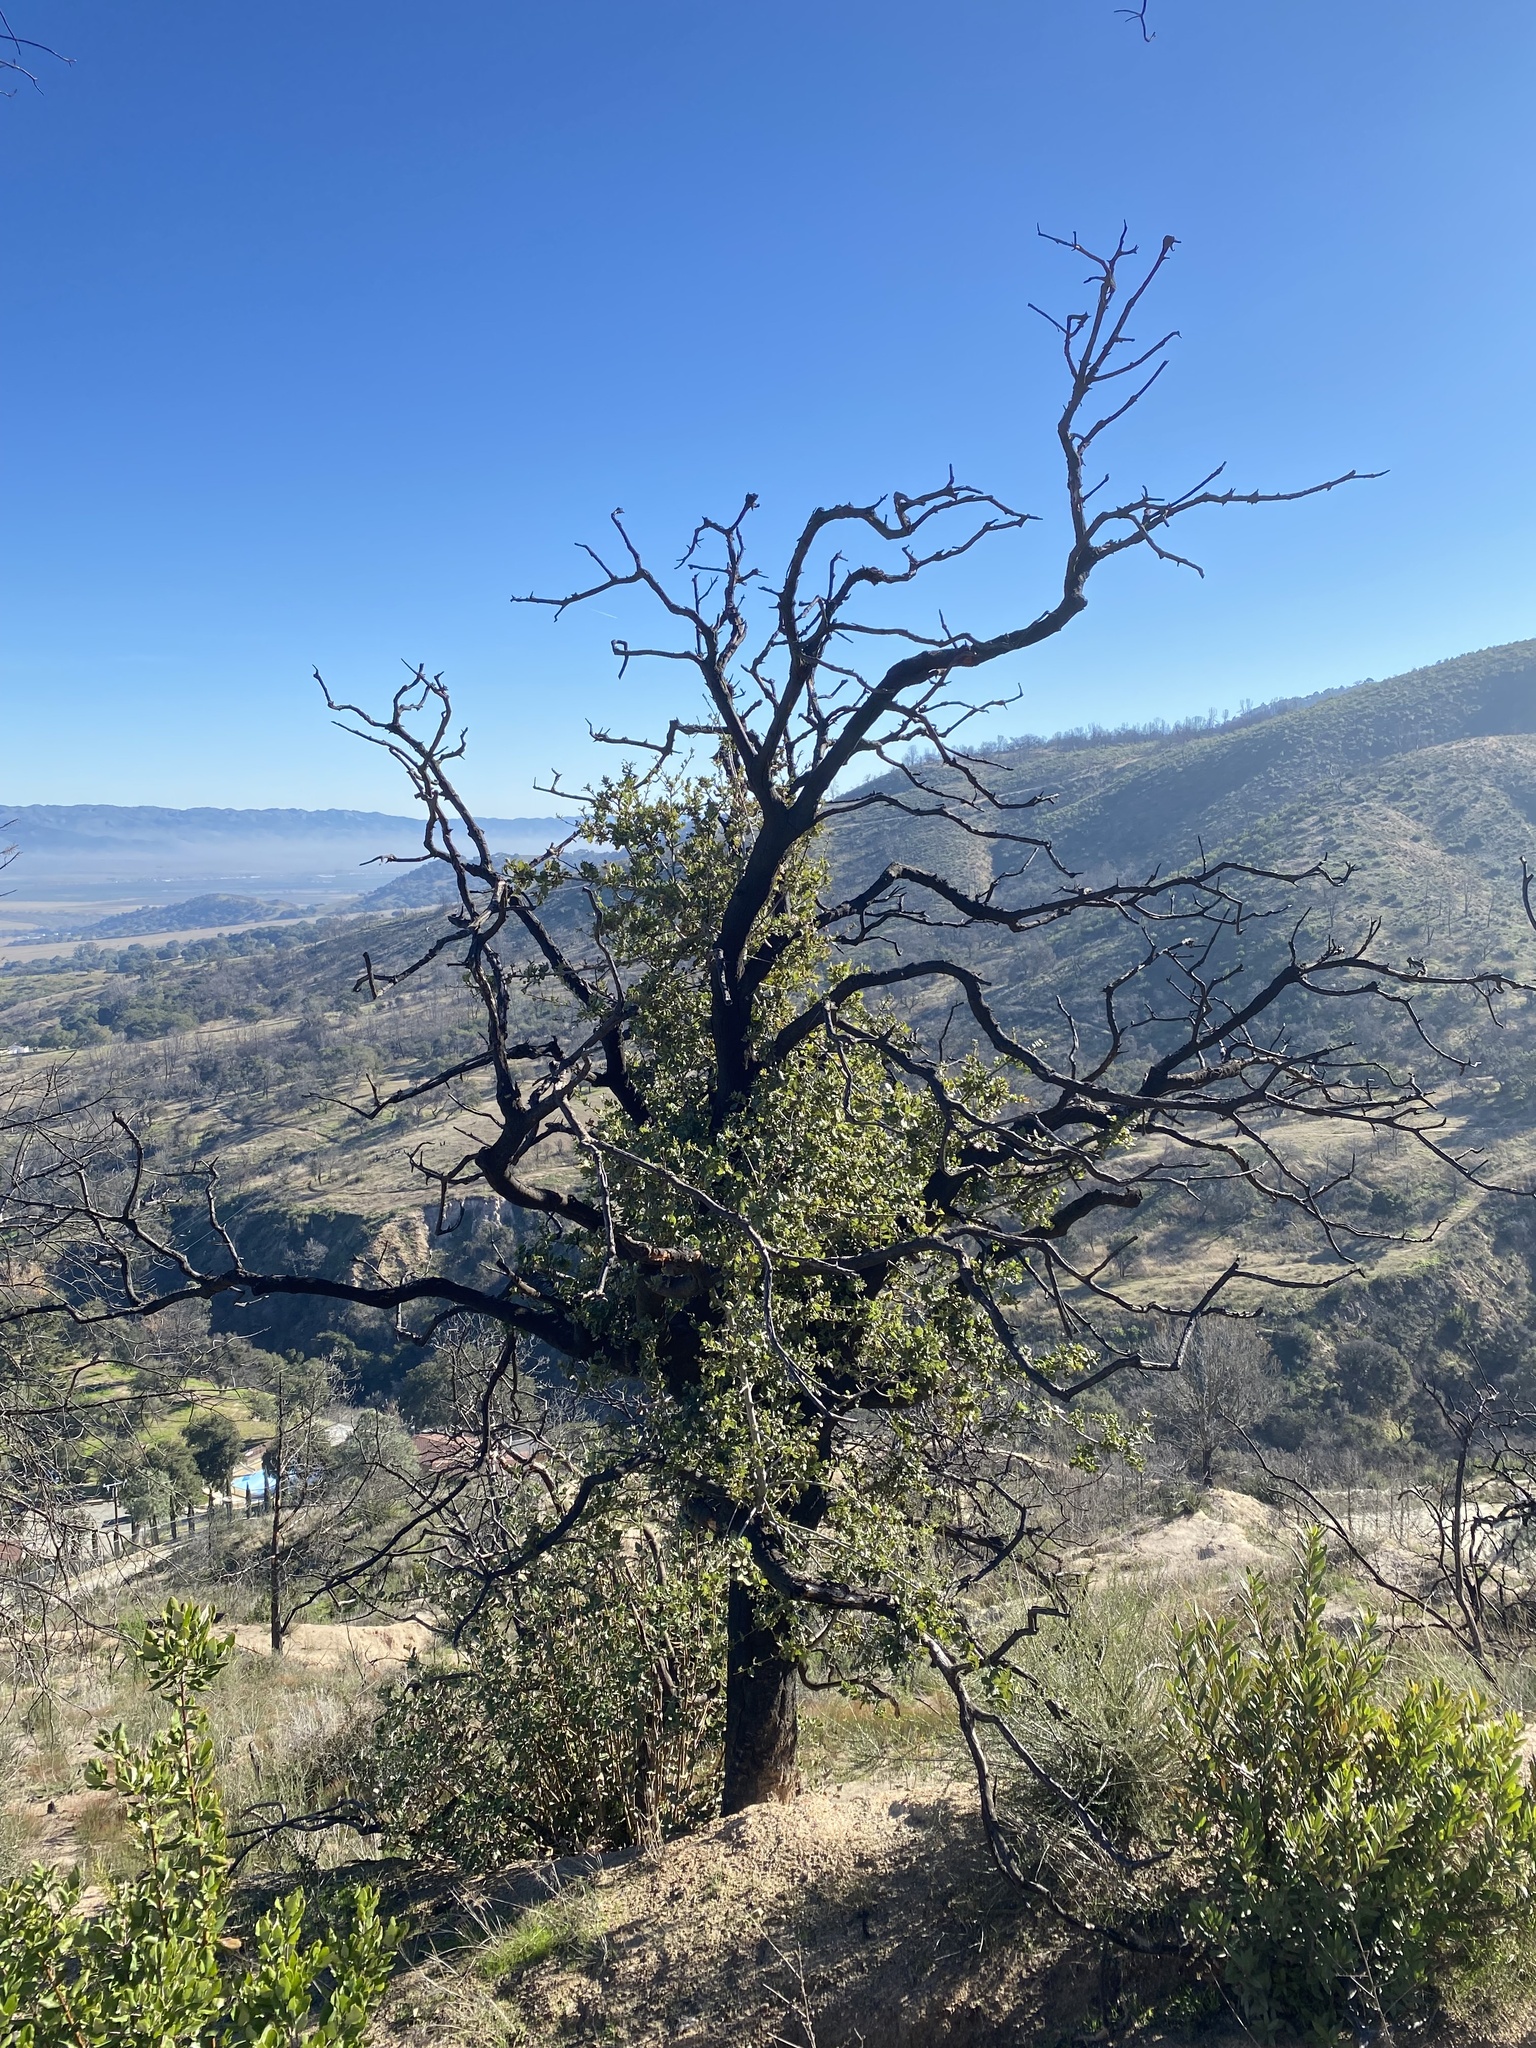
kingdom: Plantae
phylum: Tracheophyta
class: Magnoliopsida
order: Fagales
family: Fagaceae
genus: Quercus
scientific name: Quercus agrifolia
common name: California live oak
